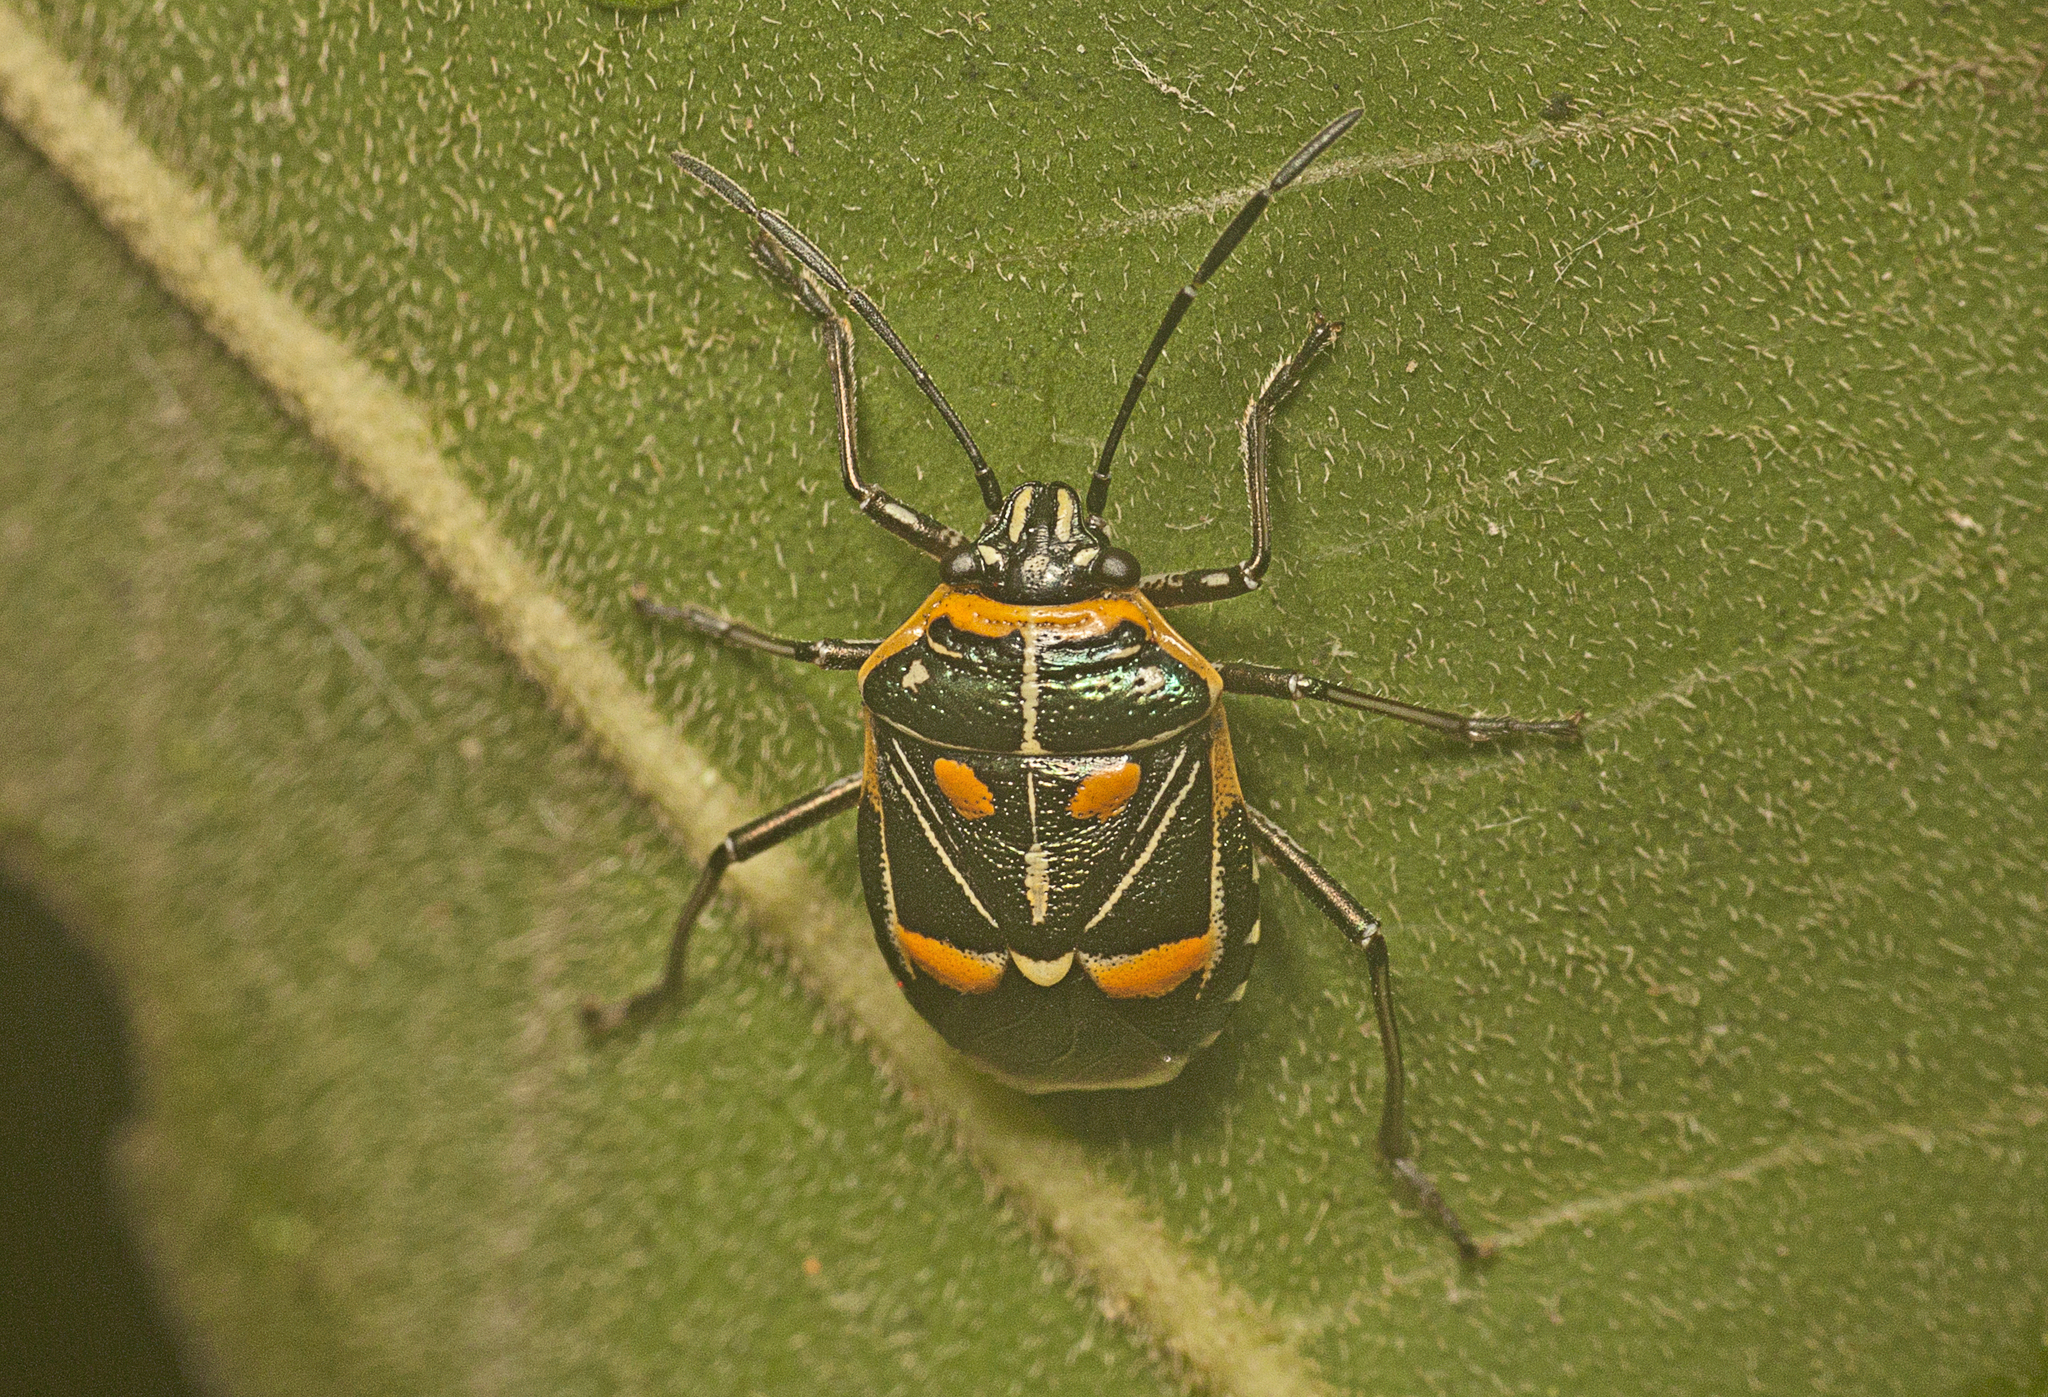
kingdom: Animalia
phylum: Arthropoda
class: Insecta
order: Hemiptera
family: Pentatomidae
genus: Grossiana
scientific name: Grossiana
